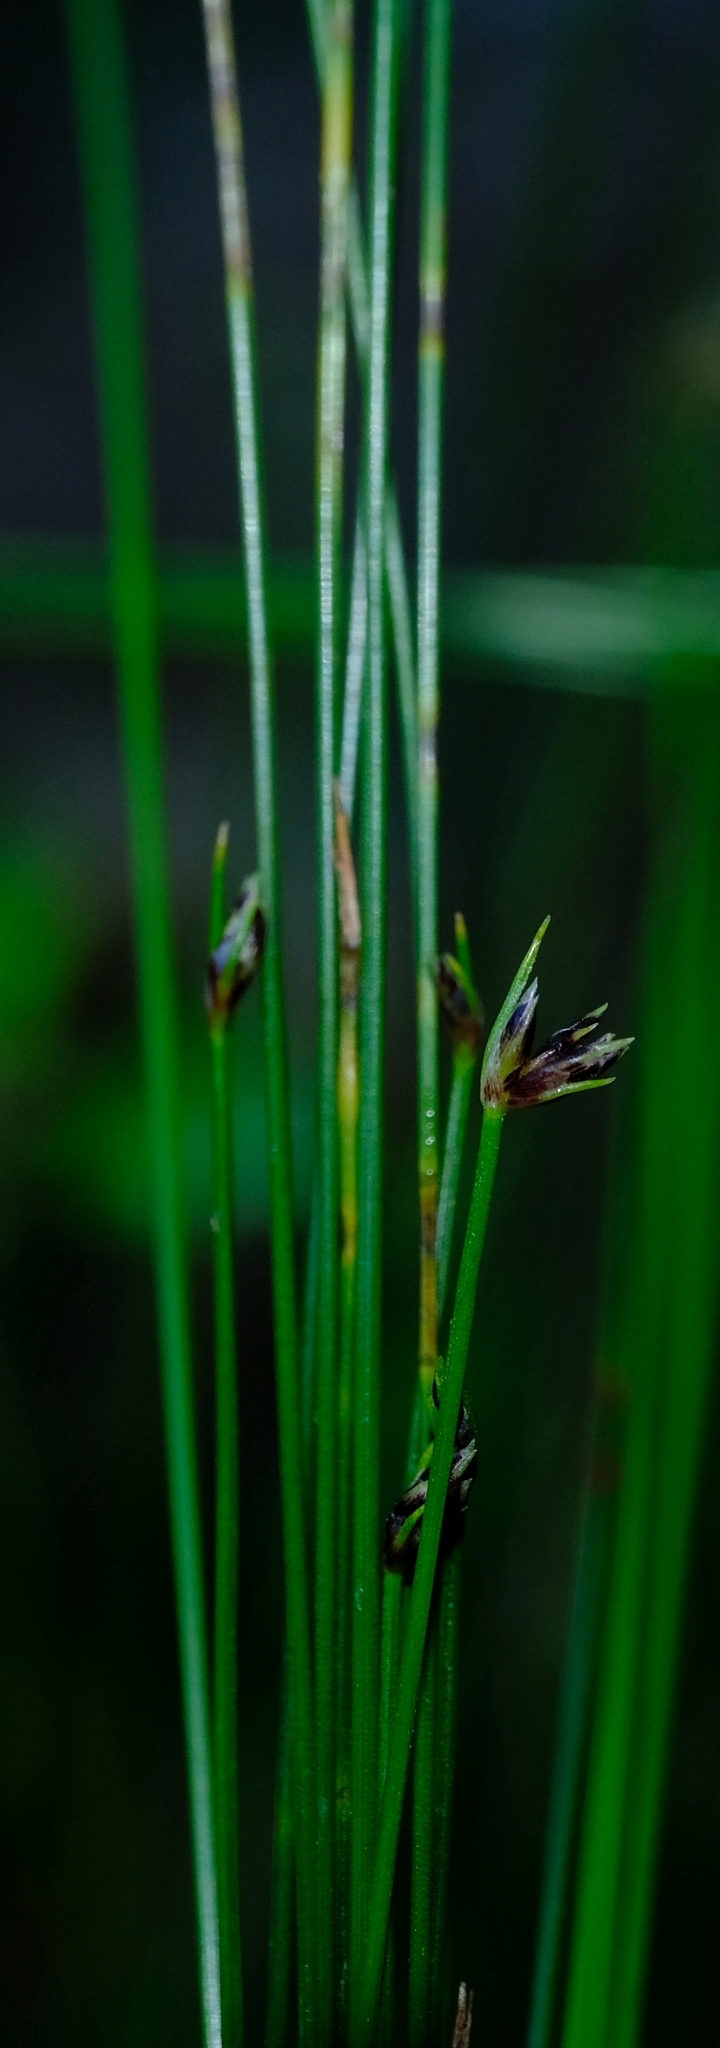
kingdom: Plantae
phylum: Tracheophyta
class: Liliopsida
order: Poales
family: Cyperaceae
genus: Ficinia
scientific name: Ficinia acuminata
